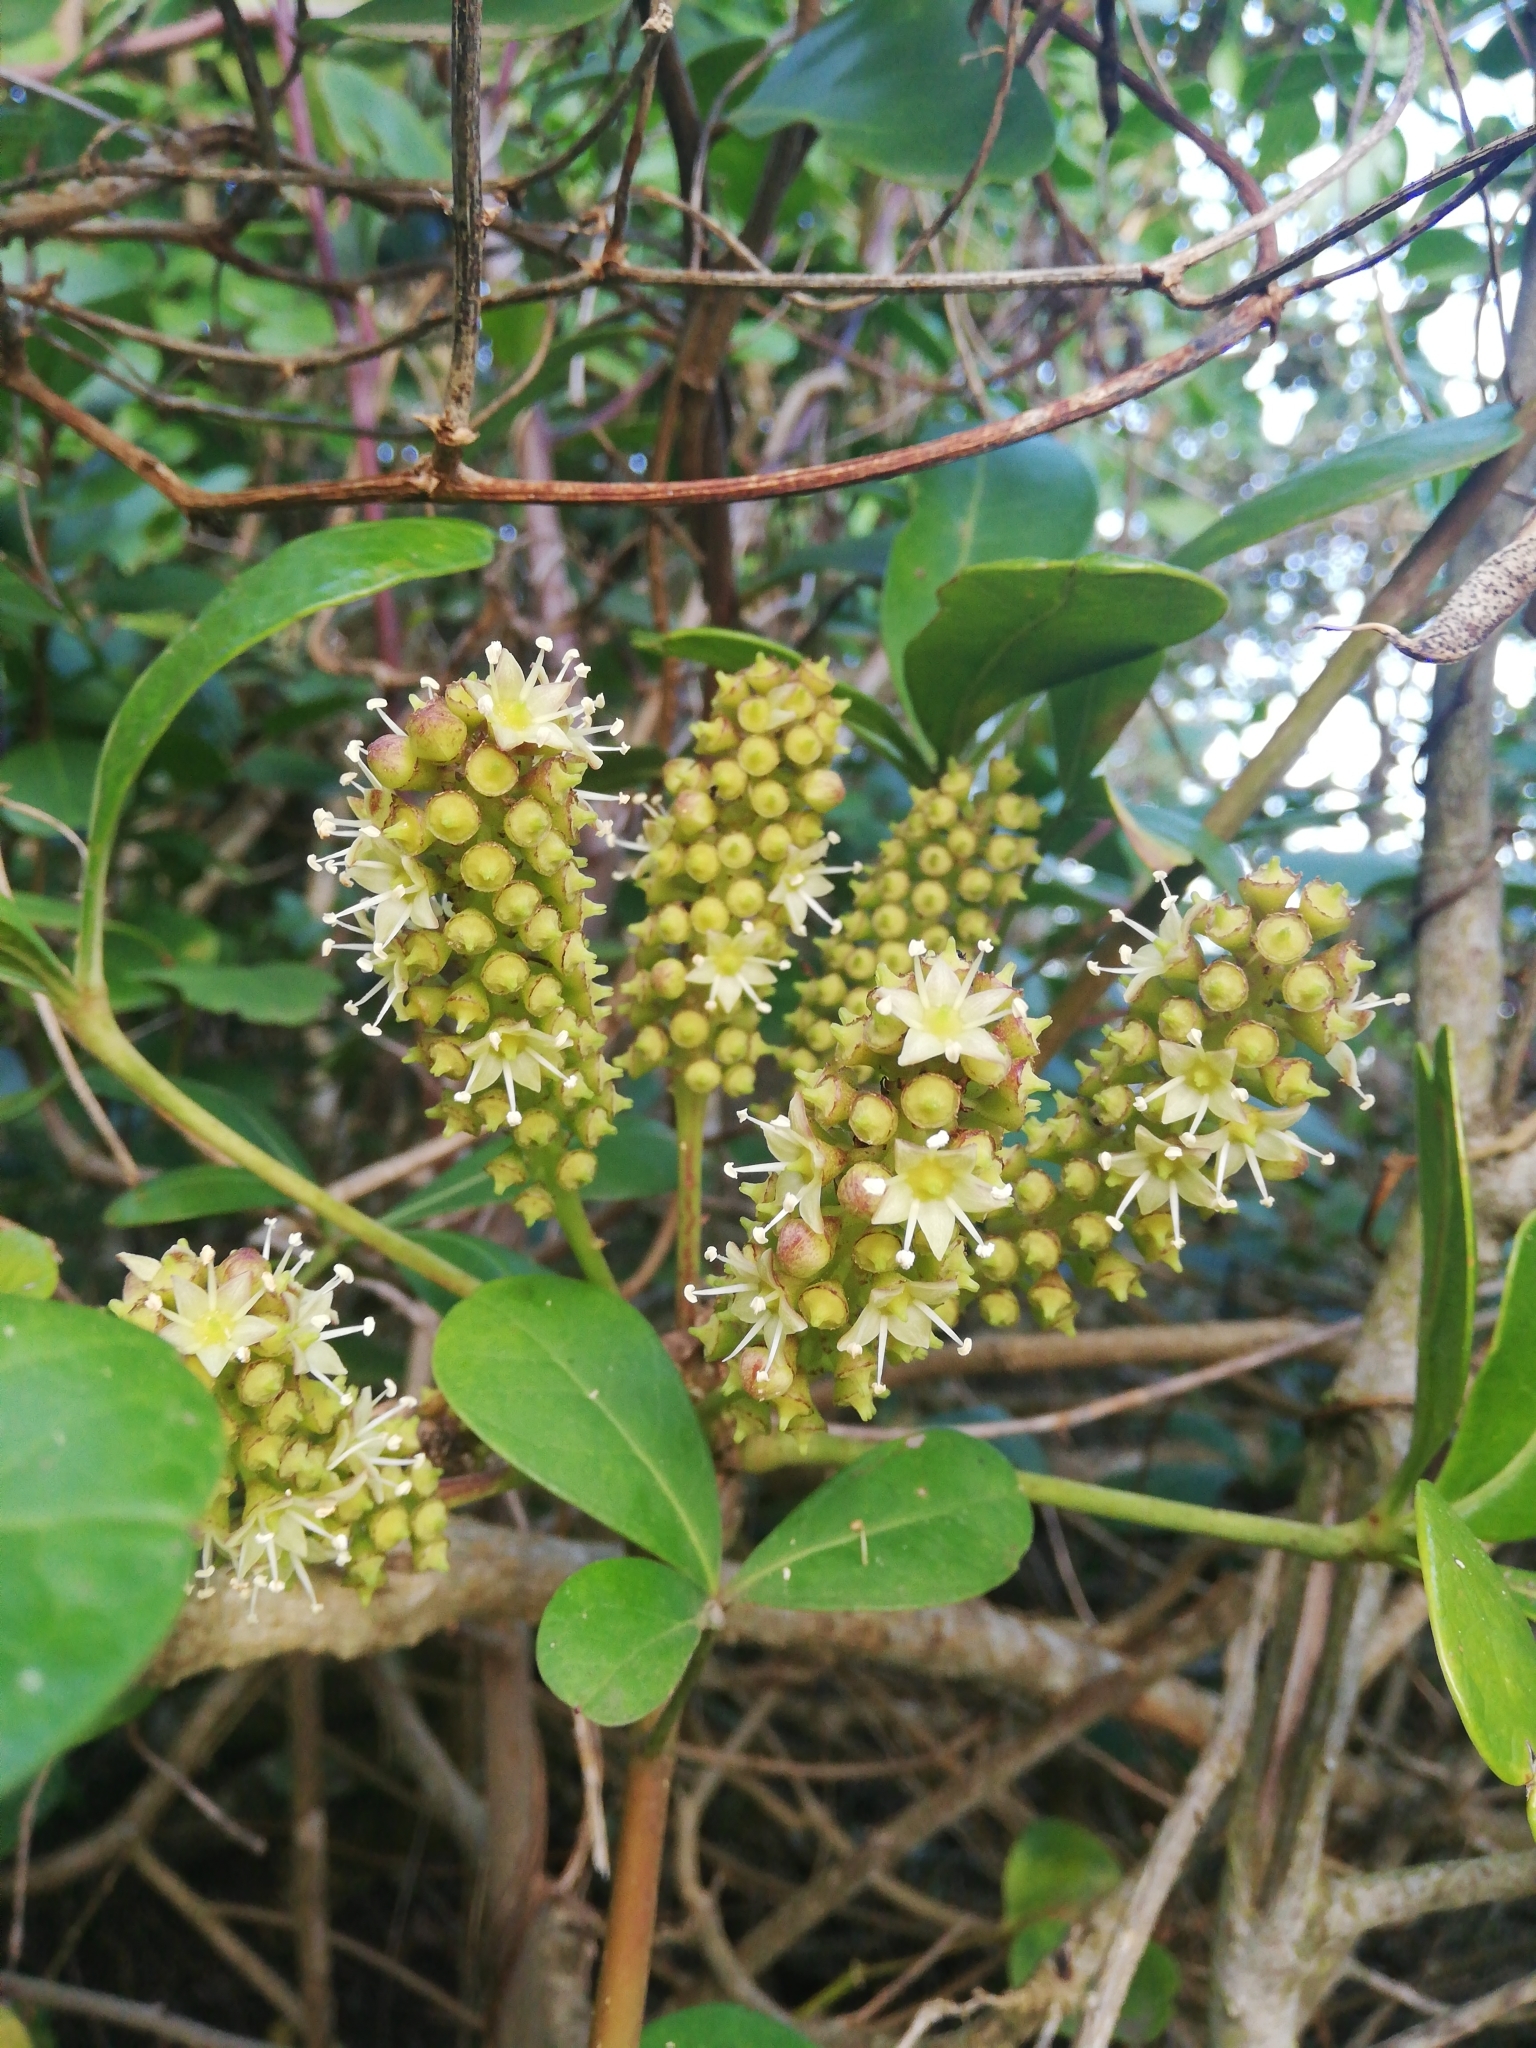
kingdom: Plantae
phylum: Tracheophyta
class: Magnoliopsida
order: Apiales
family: Araliaceae
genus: Cussonia
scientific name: Cussonia thyrsiflora
